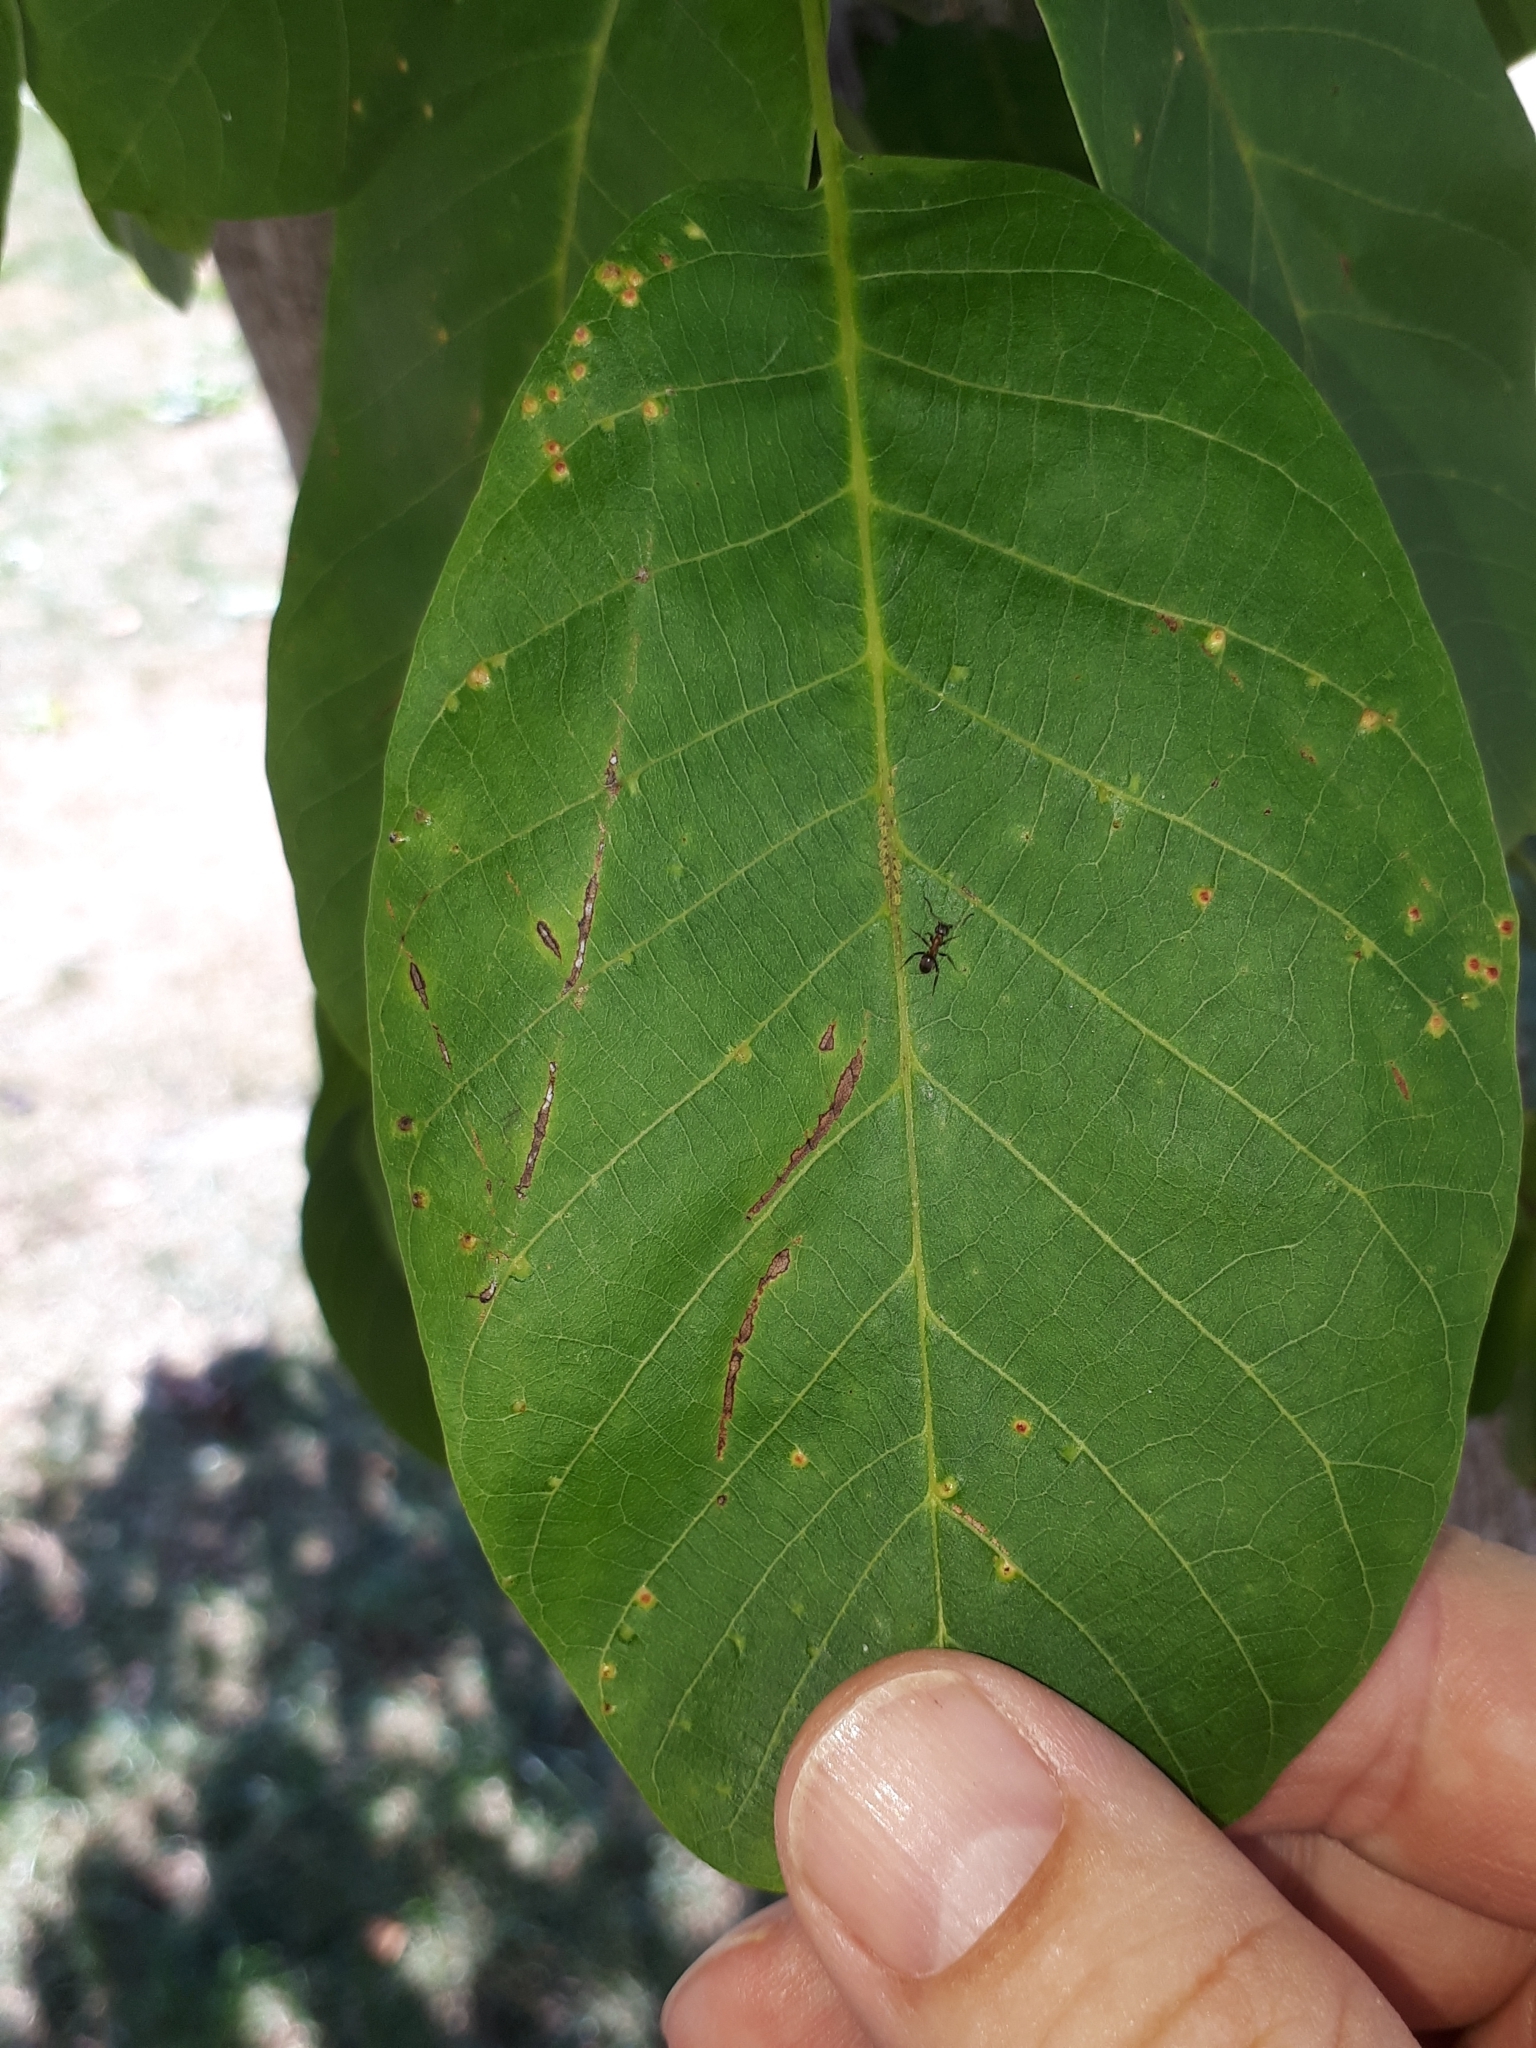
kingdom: Animalia
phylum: Arthropoda
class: Insecta
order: Hymenoptera
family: Formicidae
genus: Lasius
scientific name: Lasius emarginatus
